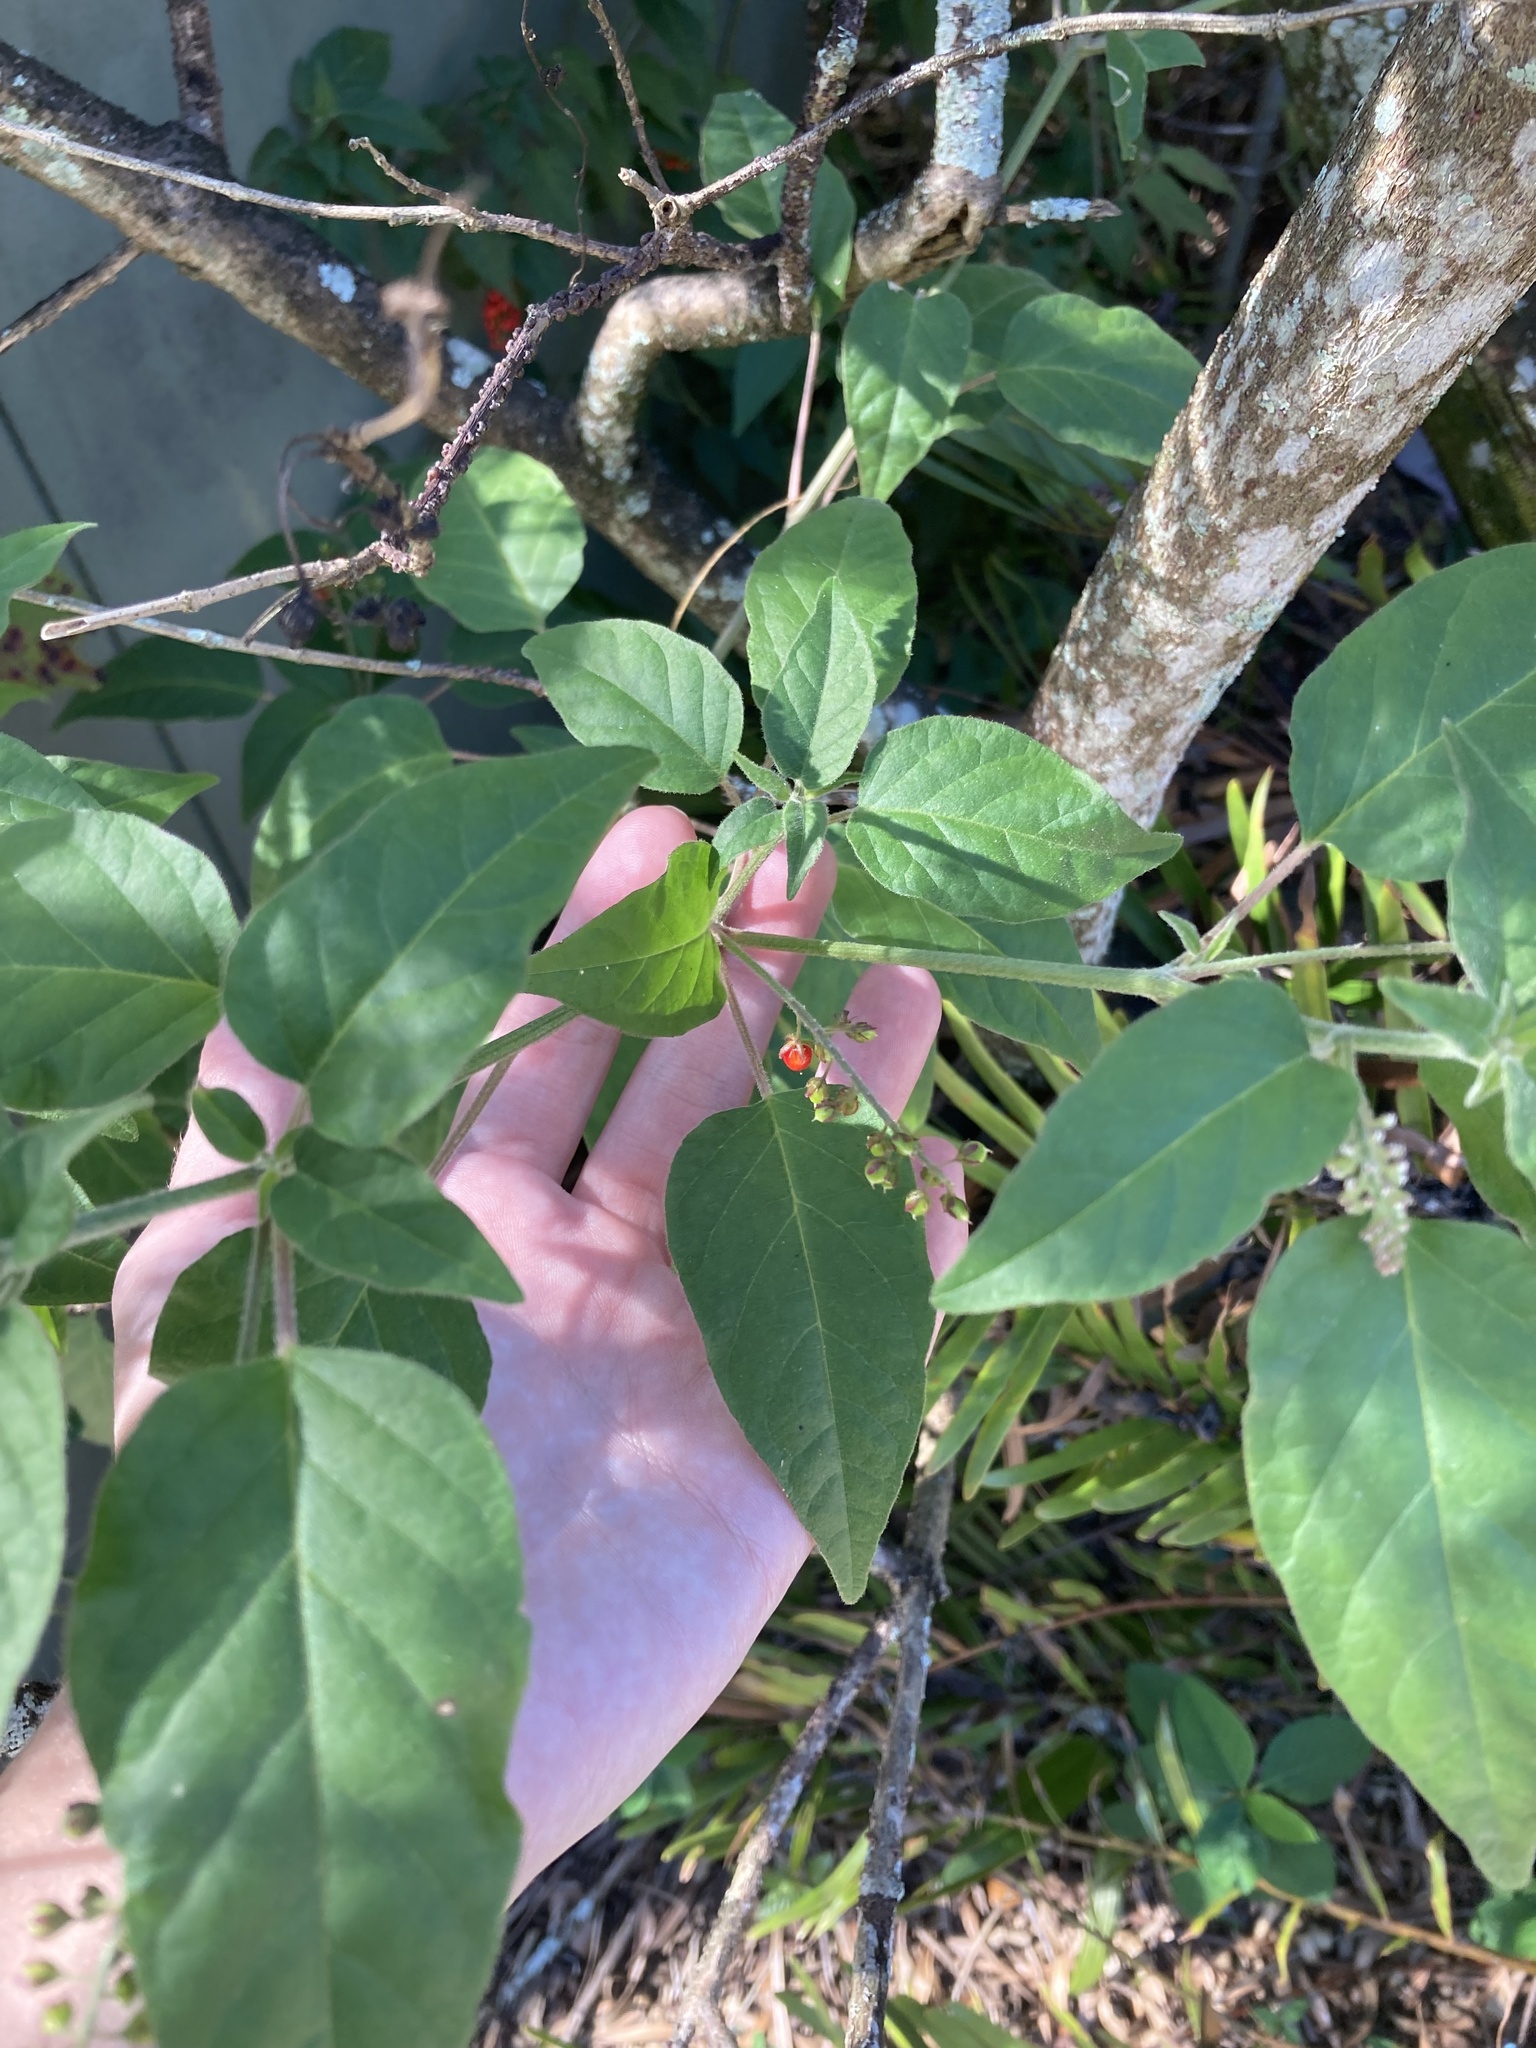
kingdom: Plantae
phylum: Tracheophyta
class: Magnoliopsida
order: Caryophyllales
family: Phytolaccaceae
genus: Rivina
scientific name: Rivina humilis
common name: Rougeplant
